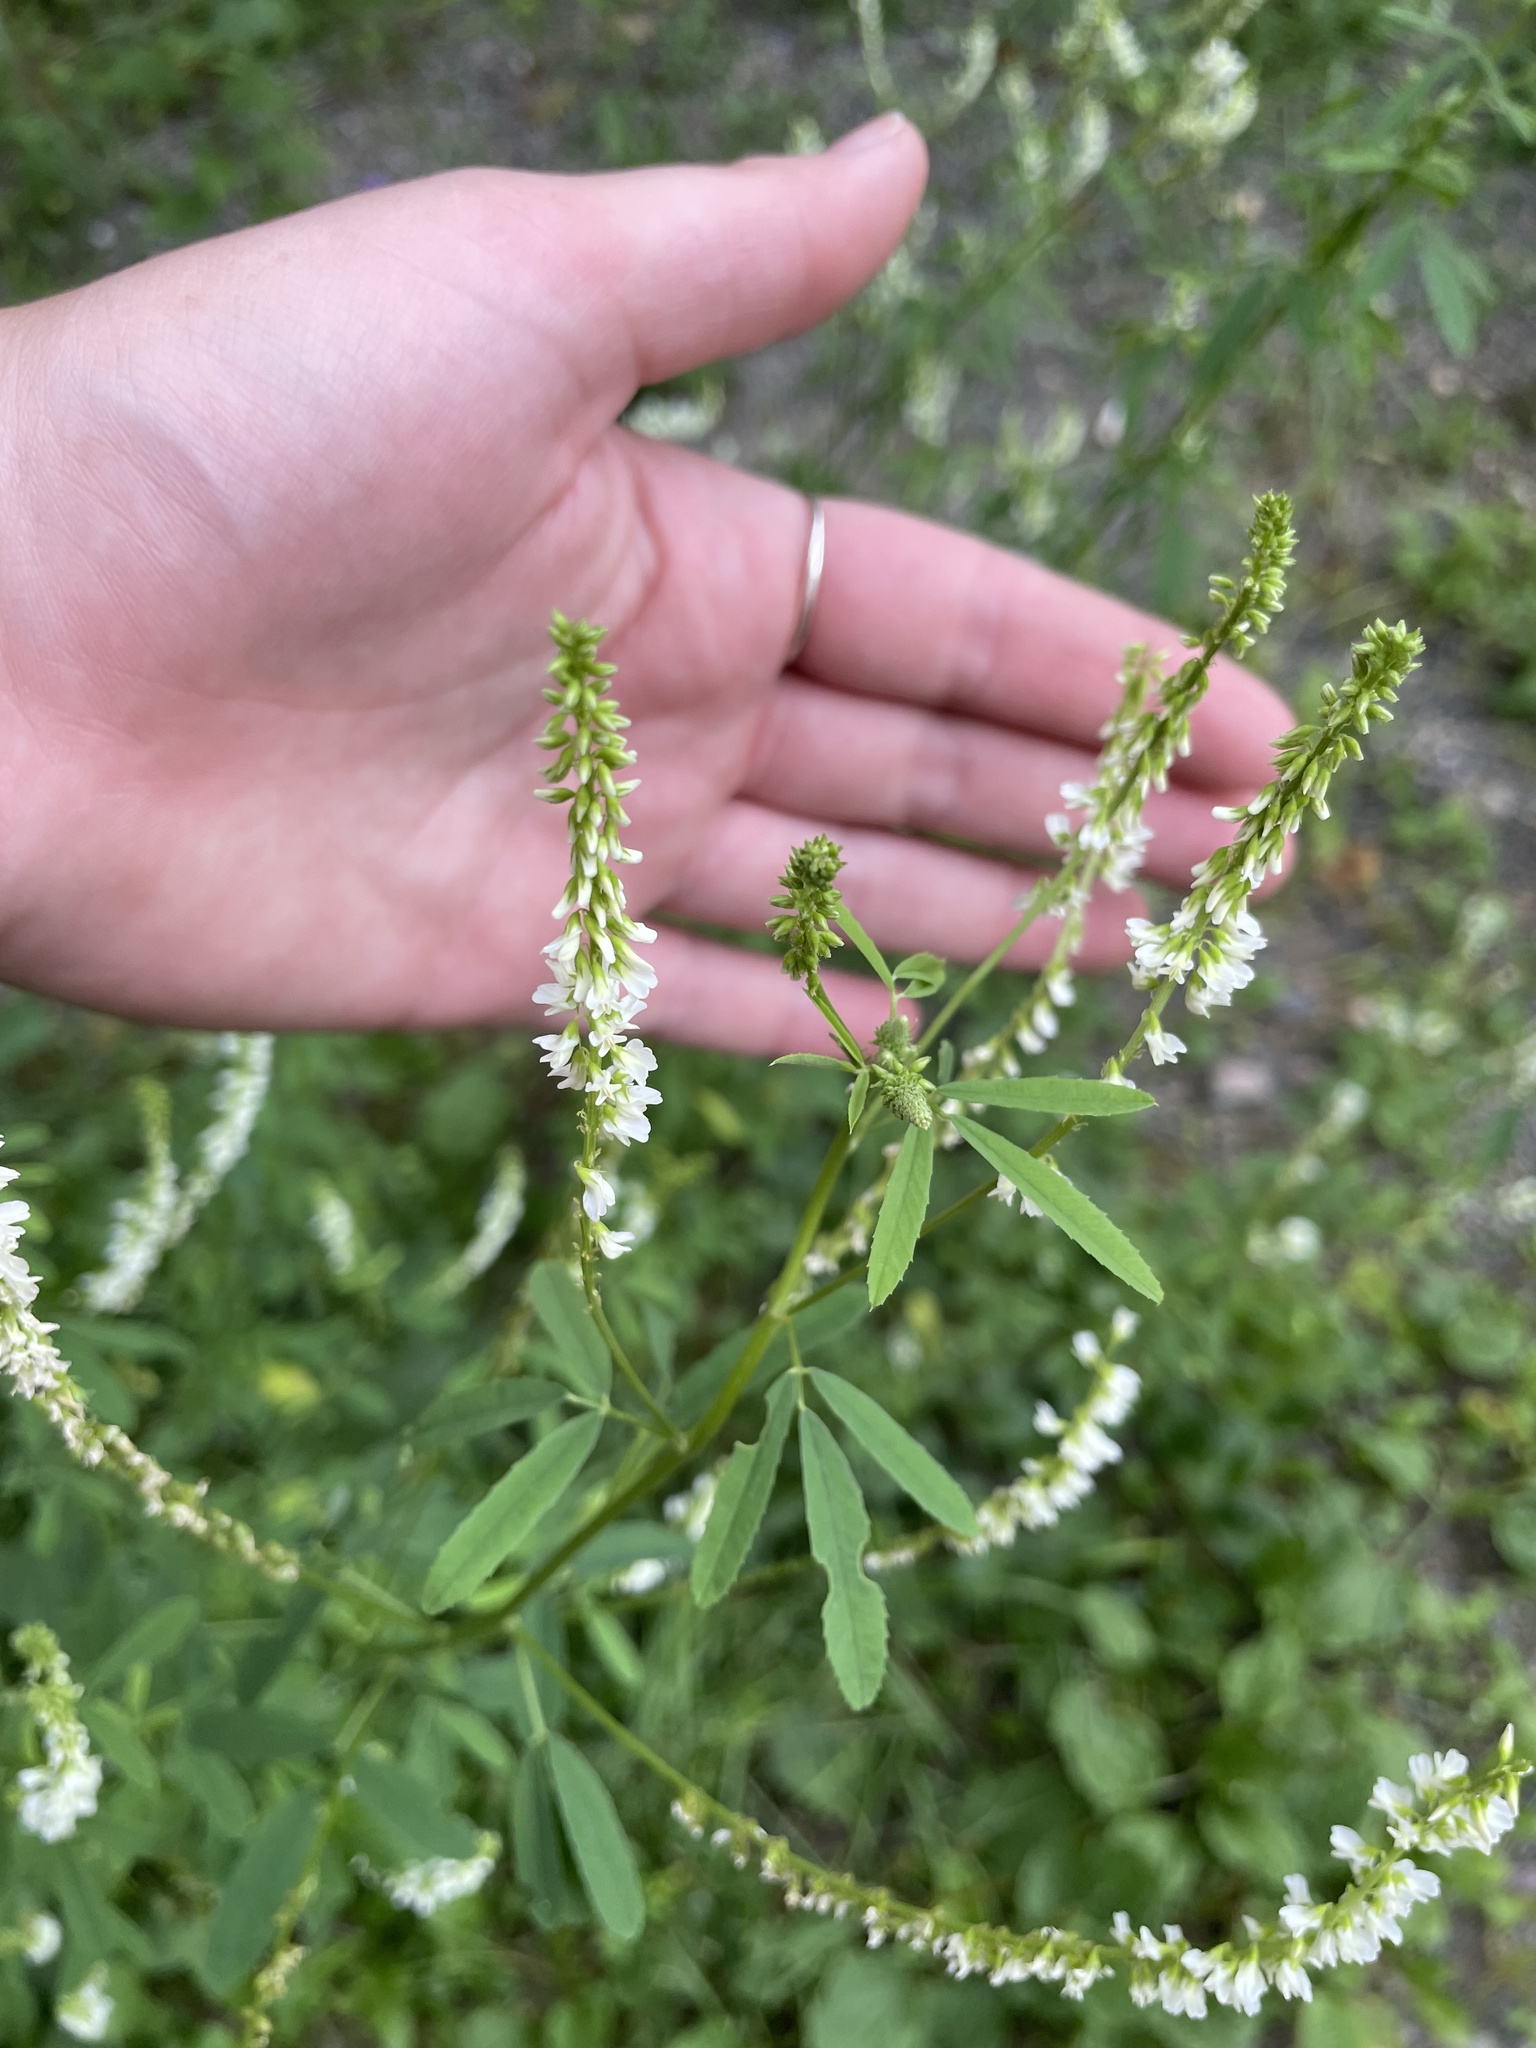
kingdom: Plantae
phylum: Tracheophyta
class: Magnoliopsida
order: Fabales
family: Fabaceae
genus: Melilotus
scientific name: Melilotus albus
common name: White melilot
